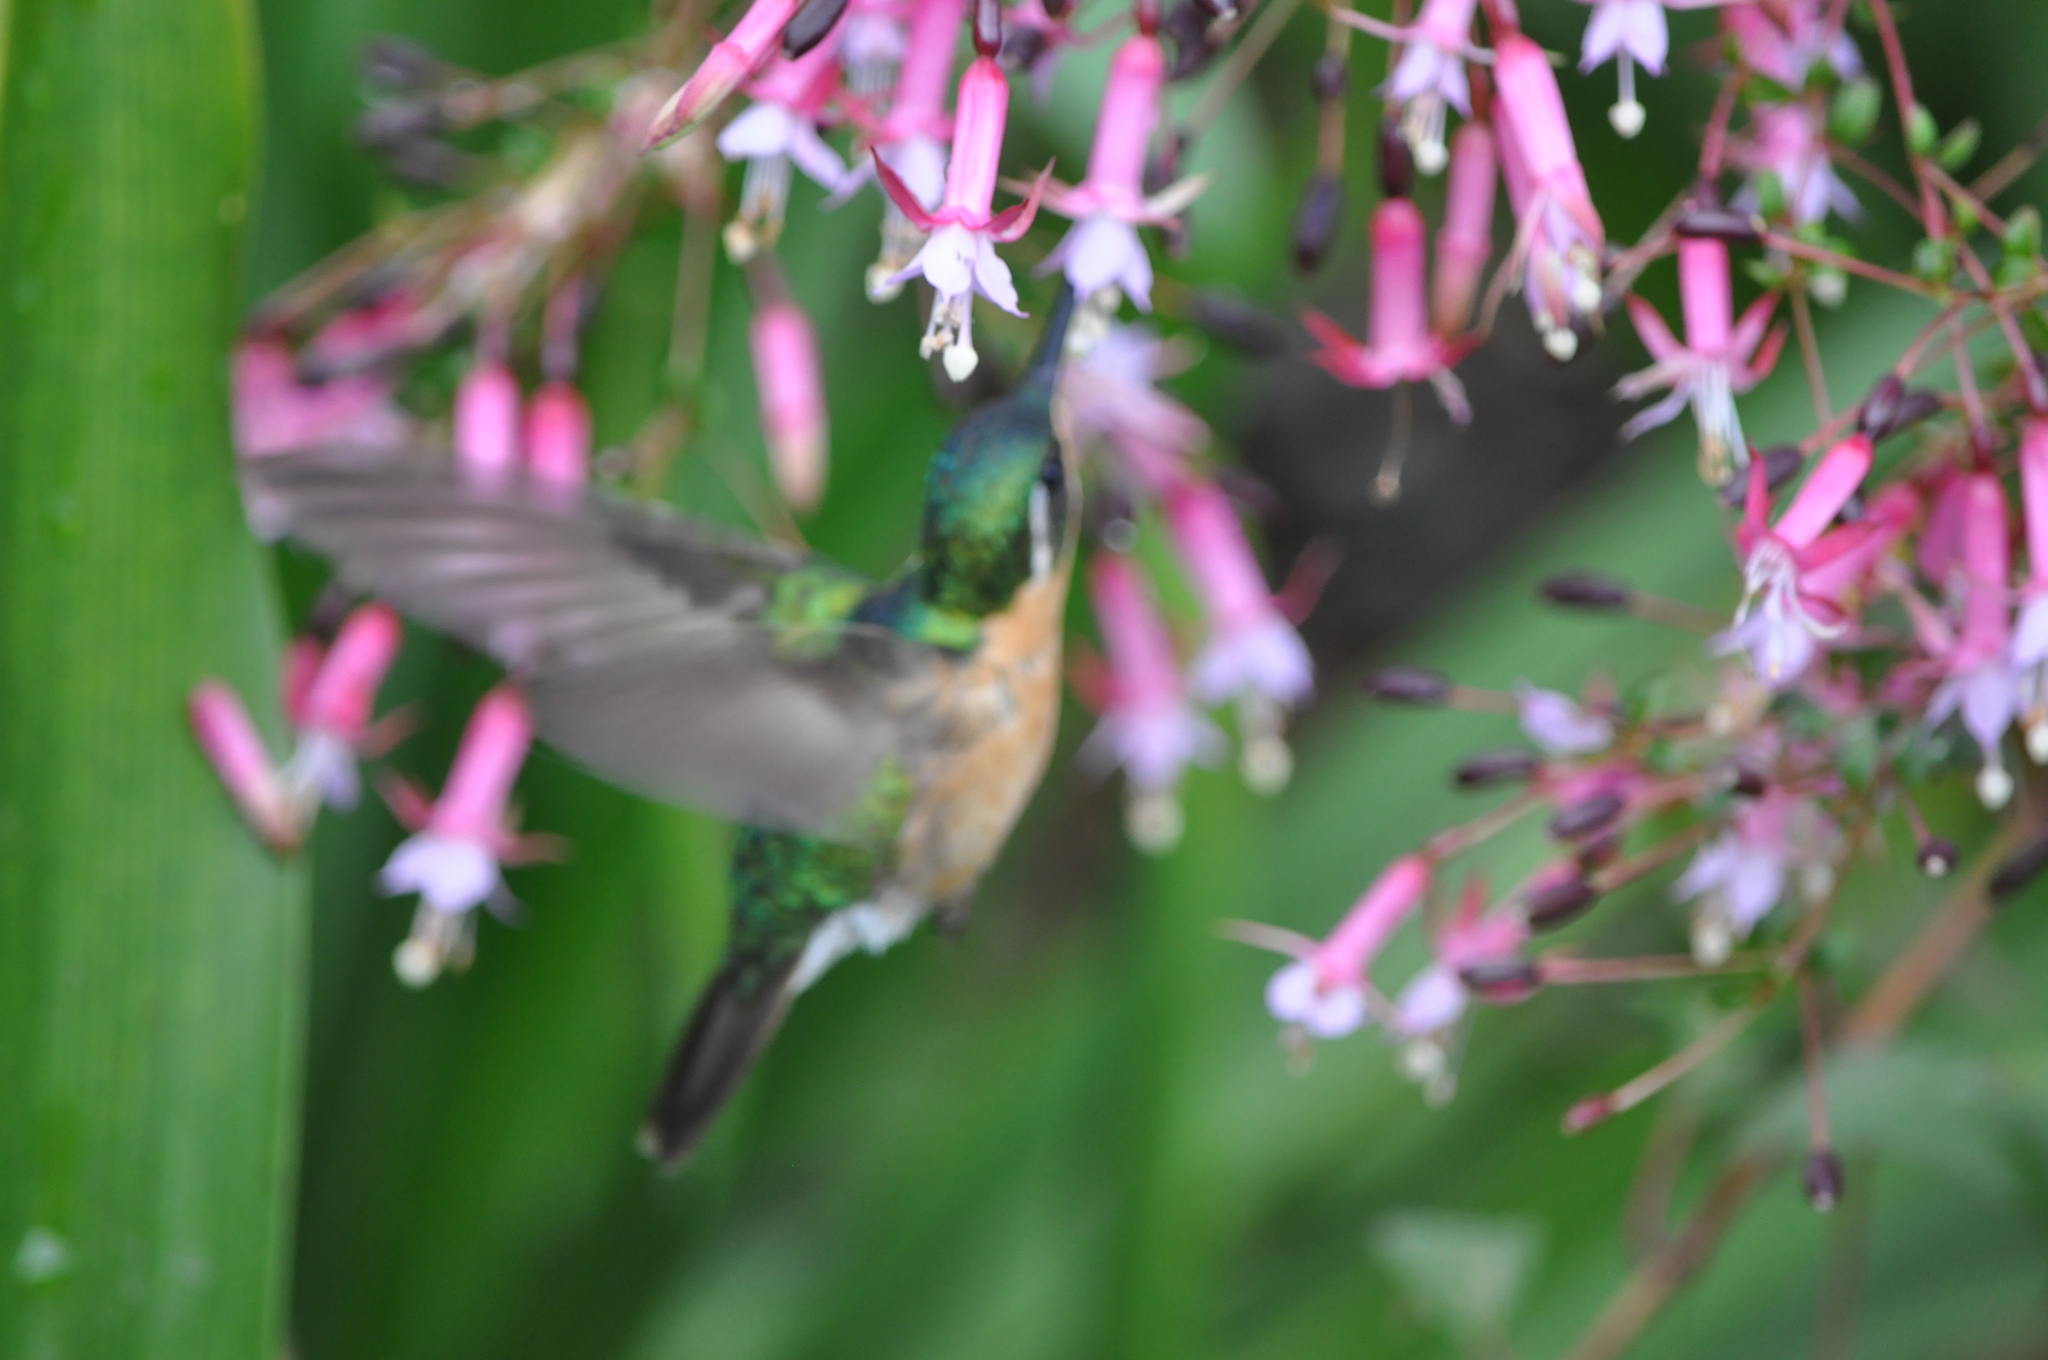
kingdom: Animalia
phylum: Chordata
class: Aves
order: Apodiformes
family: Trochilidae
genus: Lampornis
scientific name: Lampornis castaneoventris
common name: White-throated mountain-gem
